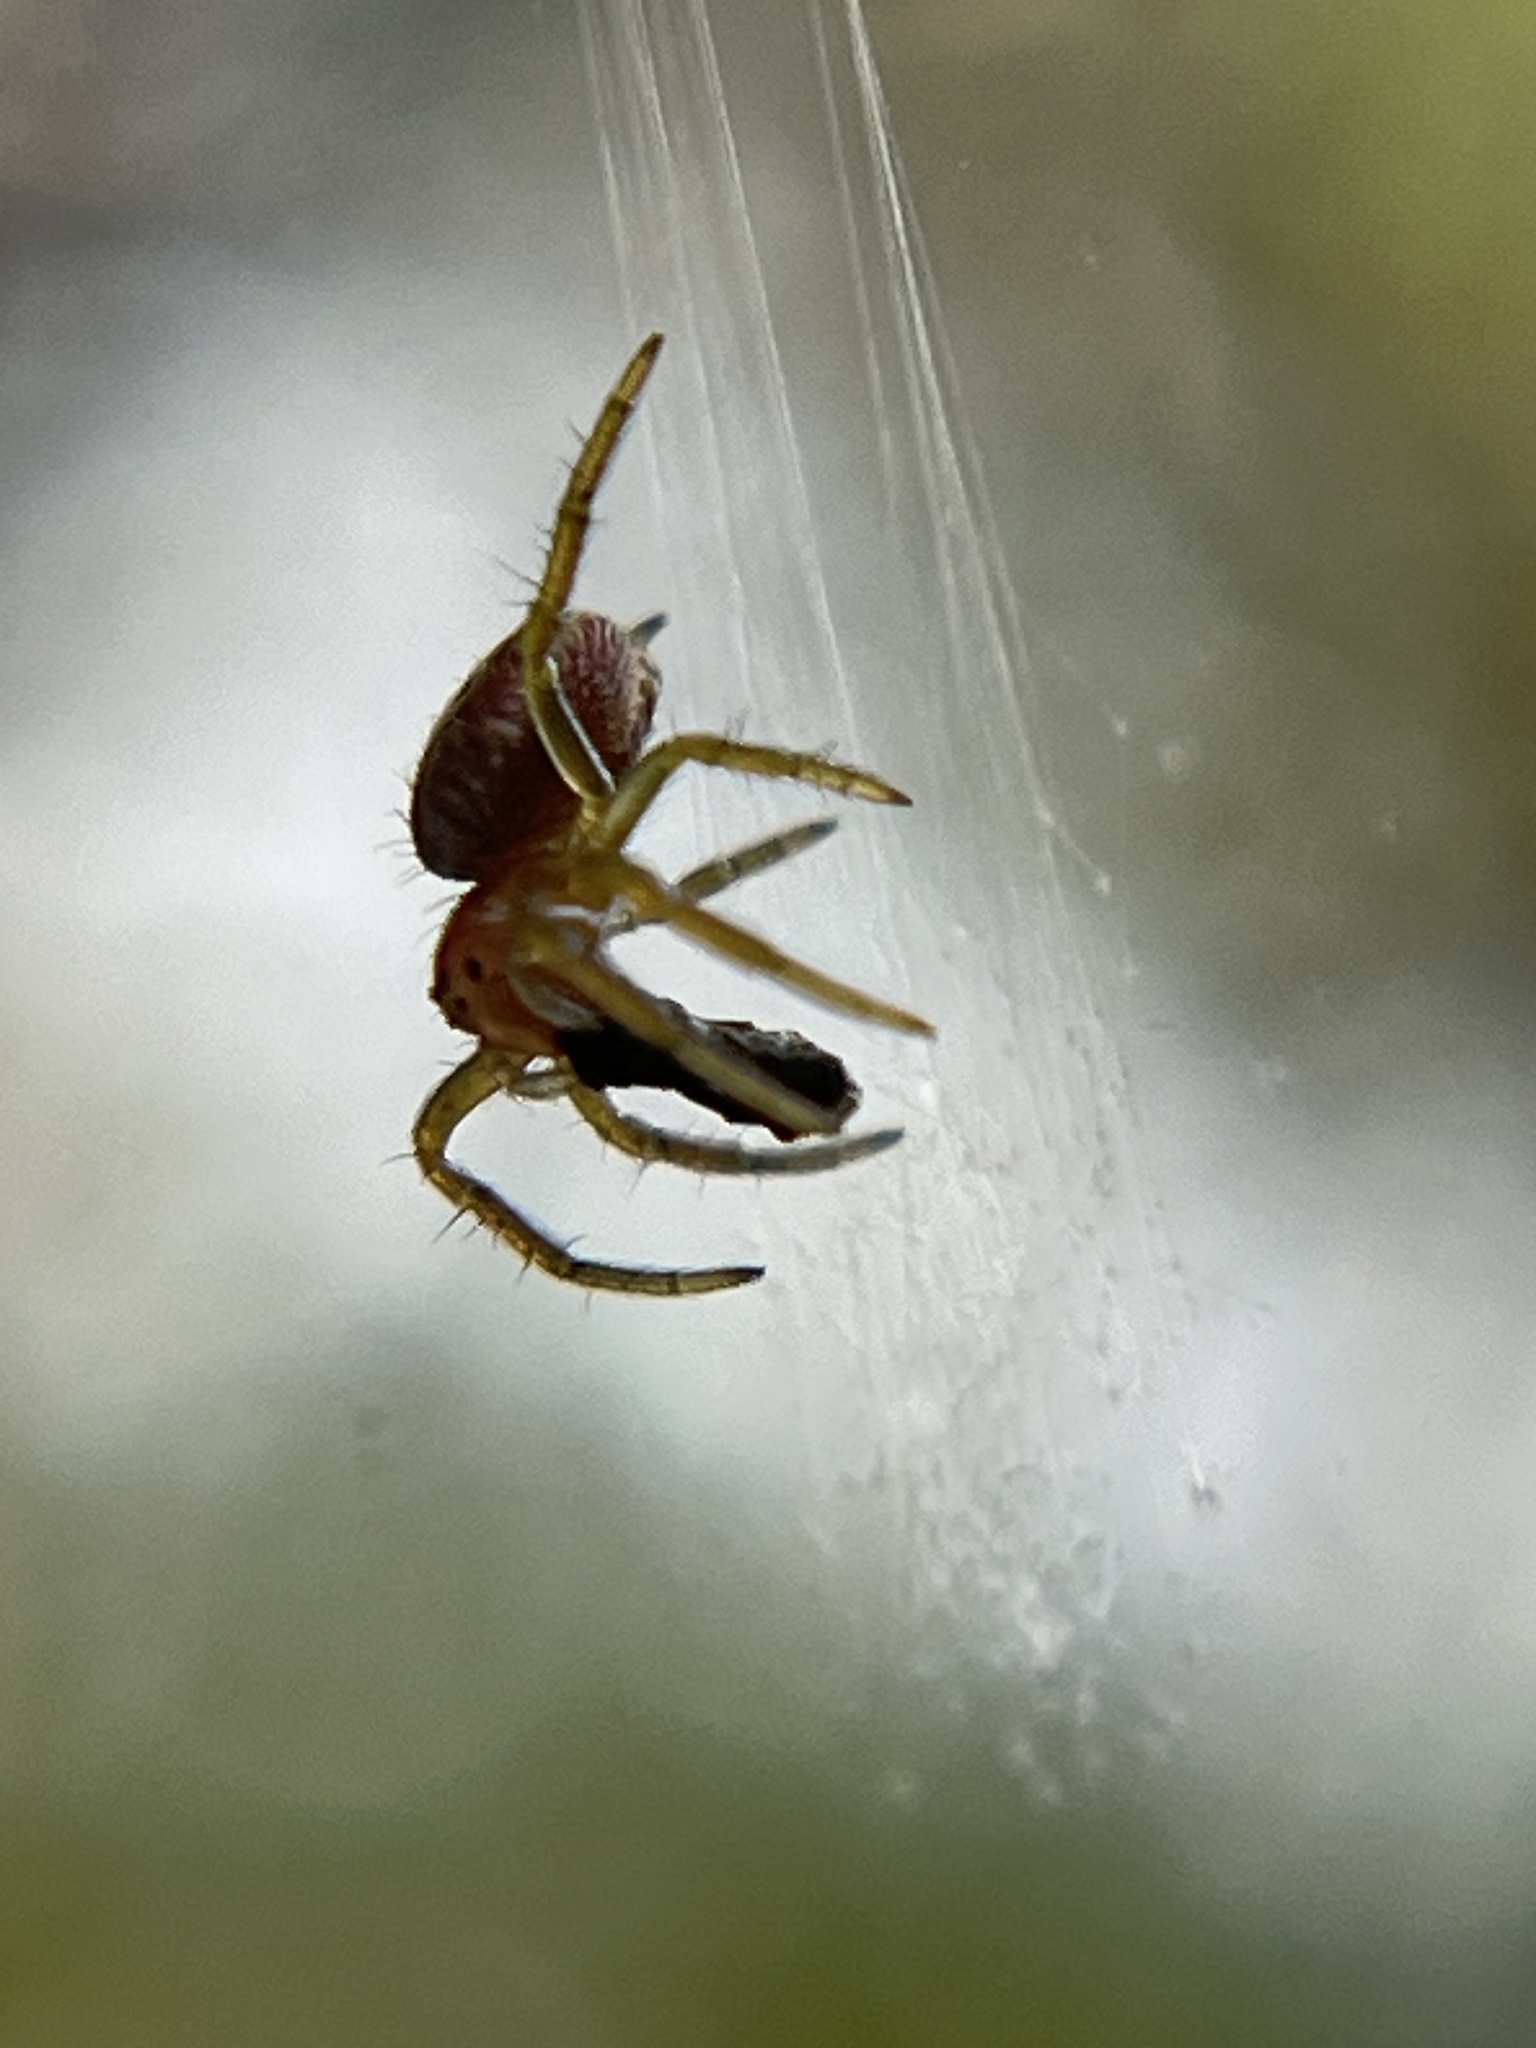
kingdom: Animalia
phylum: Arthropoda
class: Arachnida
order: Araneae
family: Araneidae
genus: Araniella
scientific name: Araniella displicata
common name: Sixspotted orb weaver
